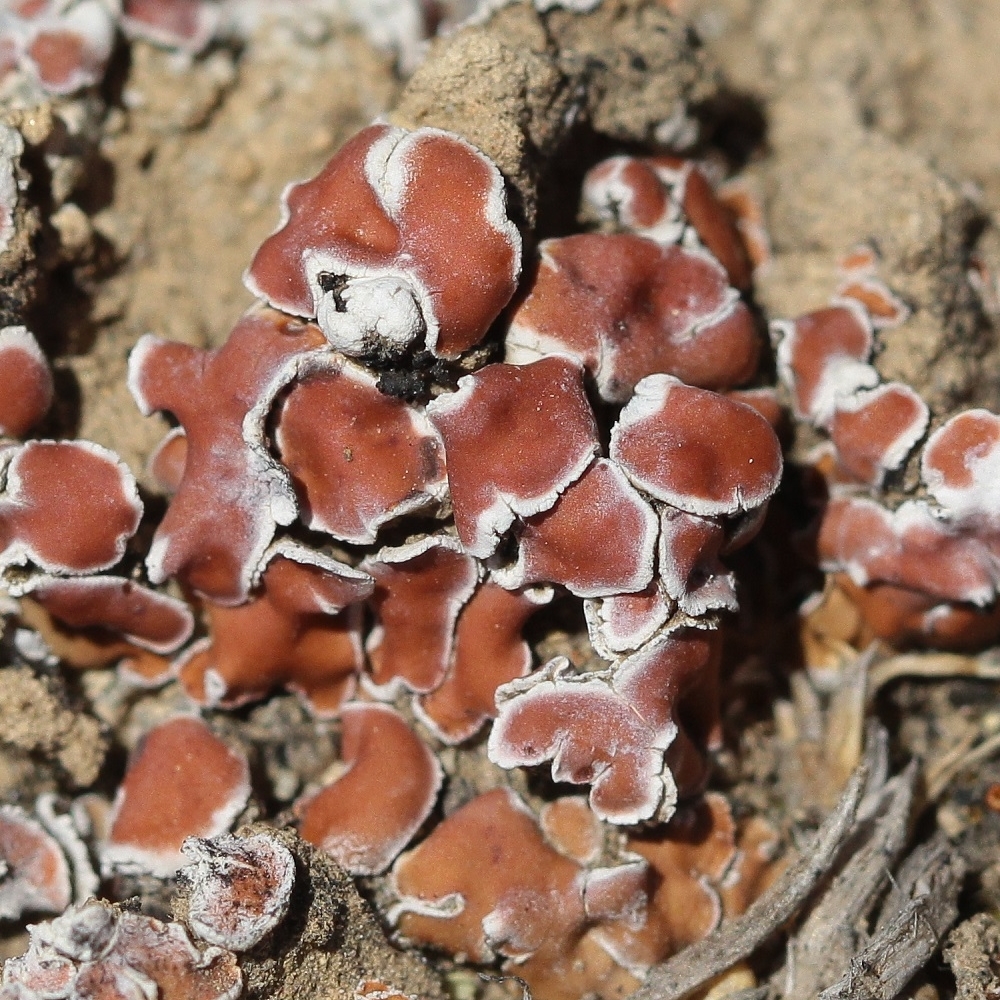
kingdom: Fungi
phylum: Ascomycota
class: Lecanoromycetes
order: Lecanorales
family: Psoraceae
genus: Psora
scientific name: Psora decipiens
